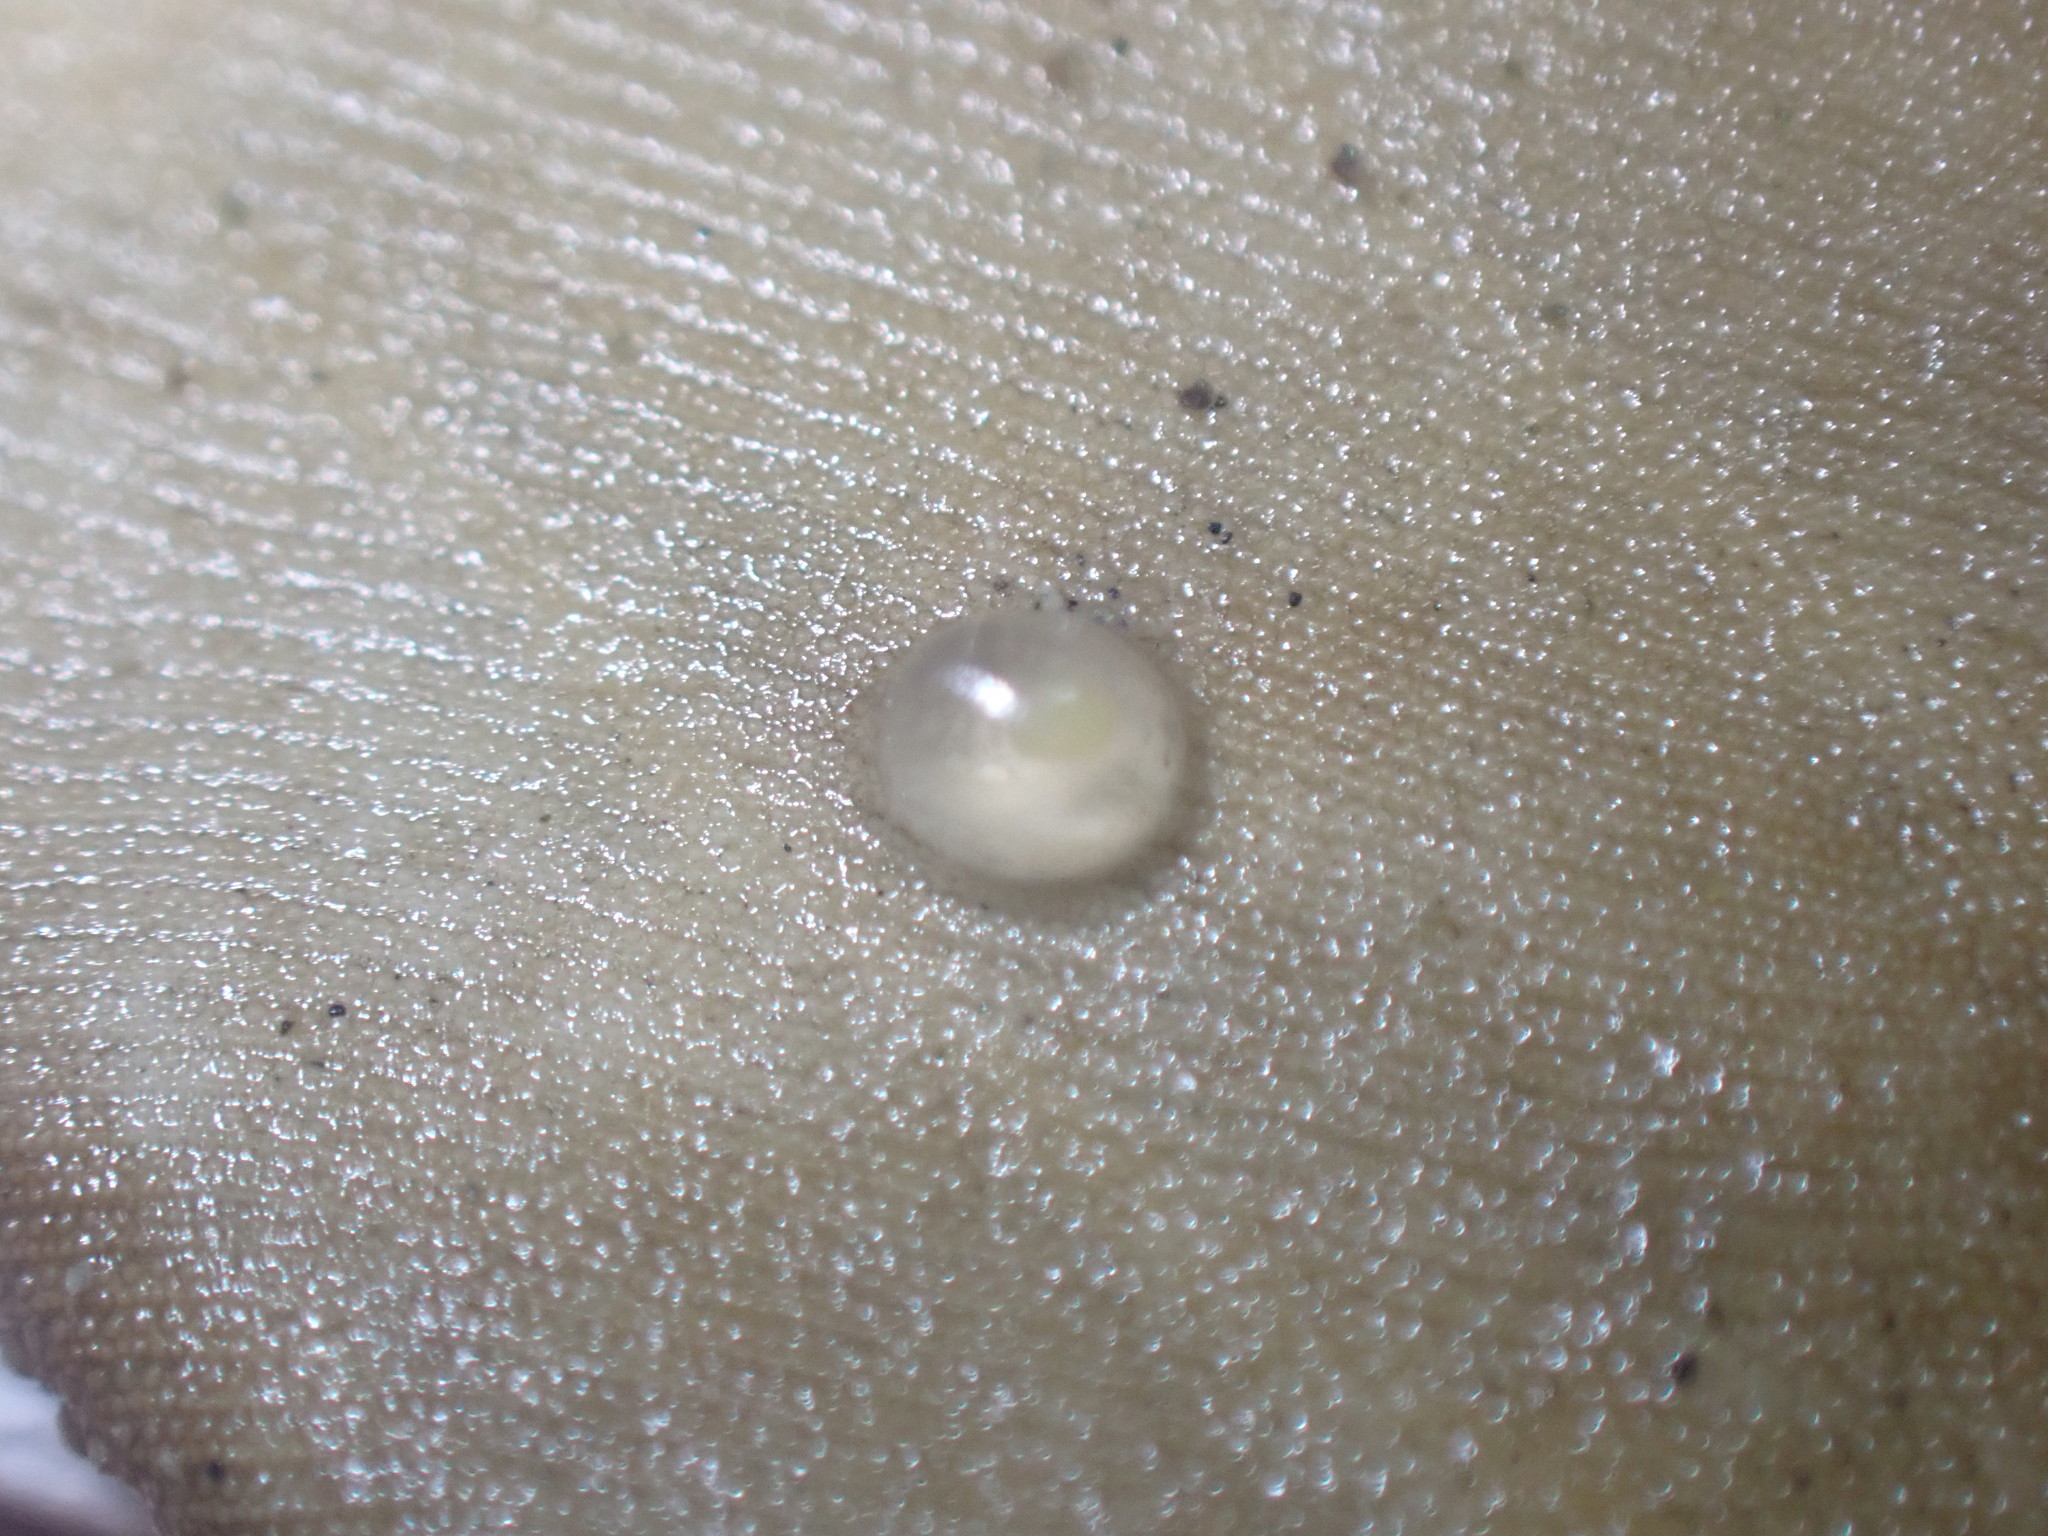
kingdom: Animalia
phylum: Mollusca
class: Gastropoda
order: Neogastropoda
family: Terebridae
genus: Duplicaria
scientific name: Duplicaria tristis
